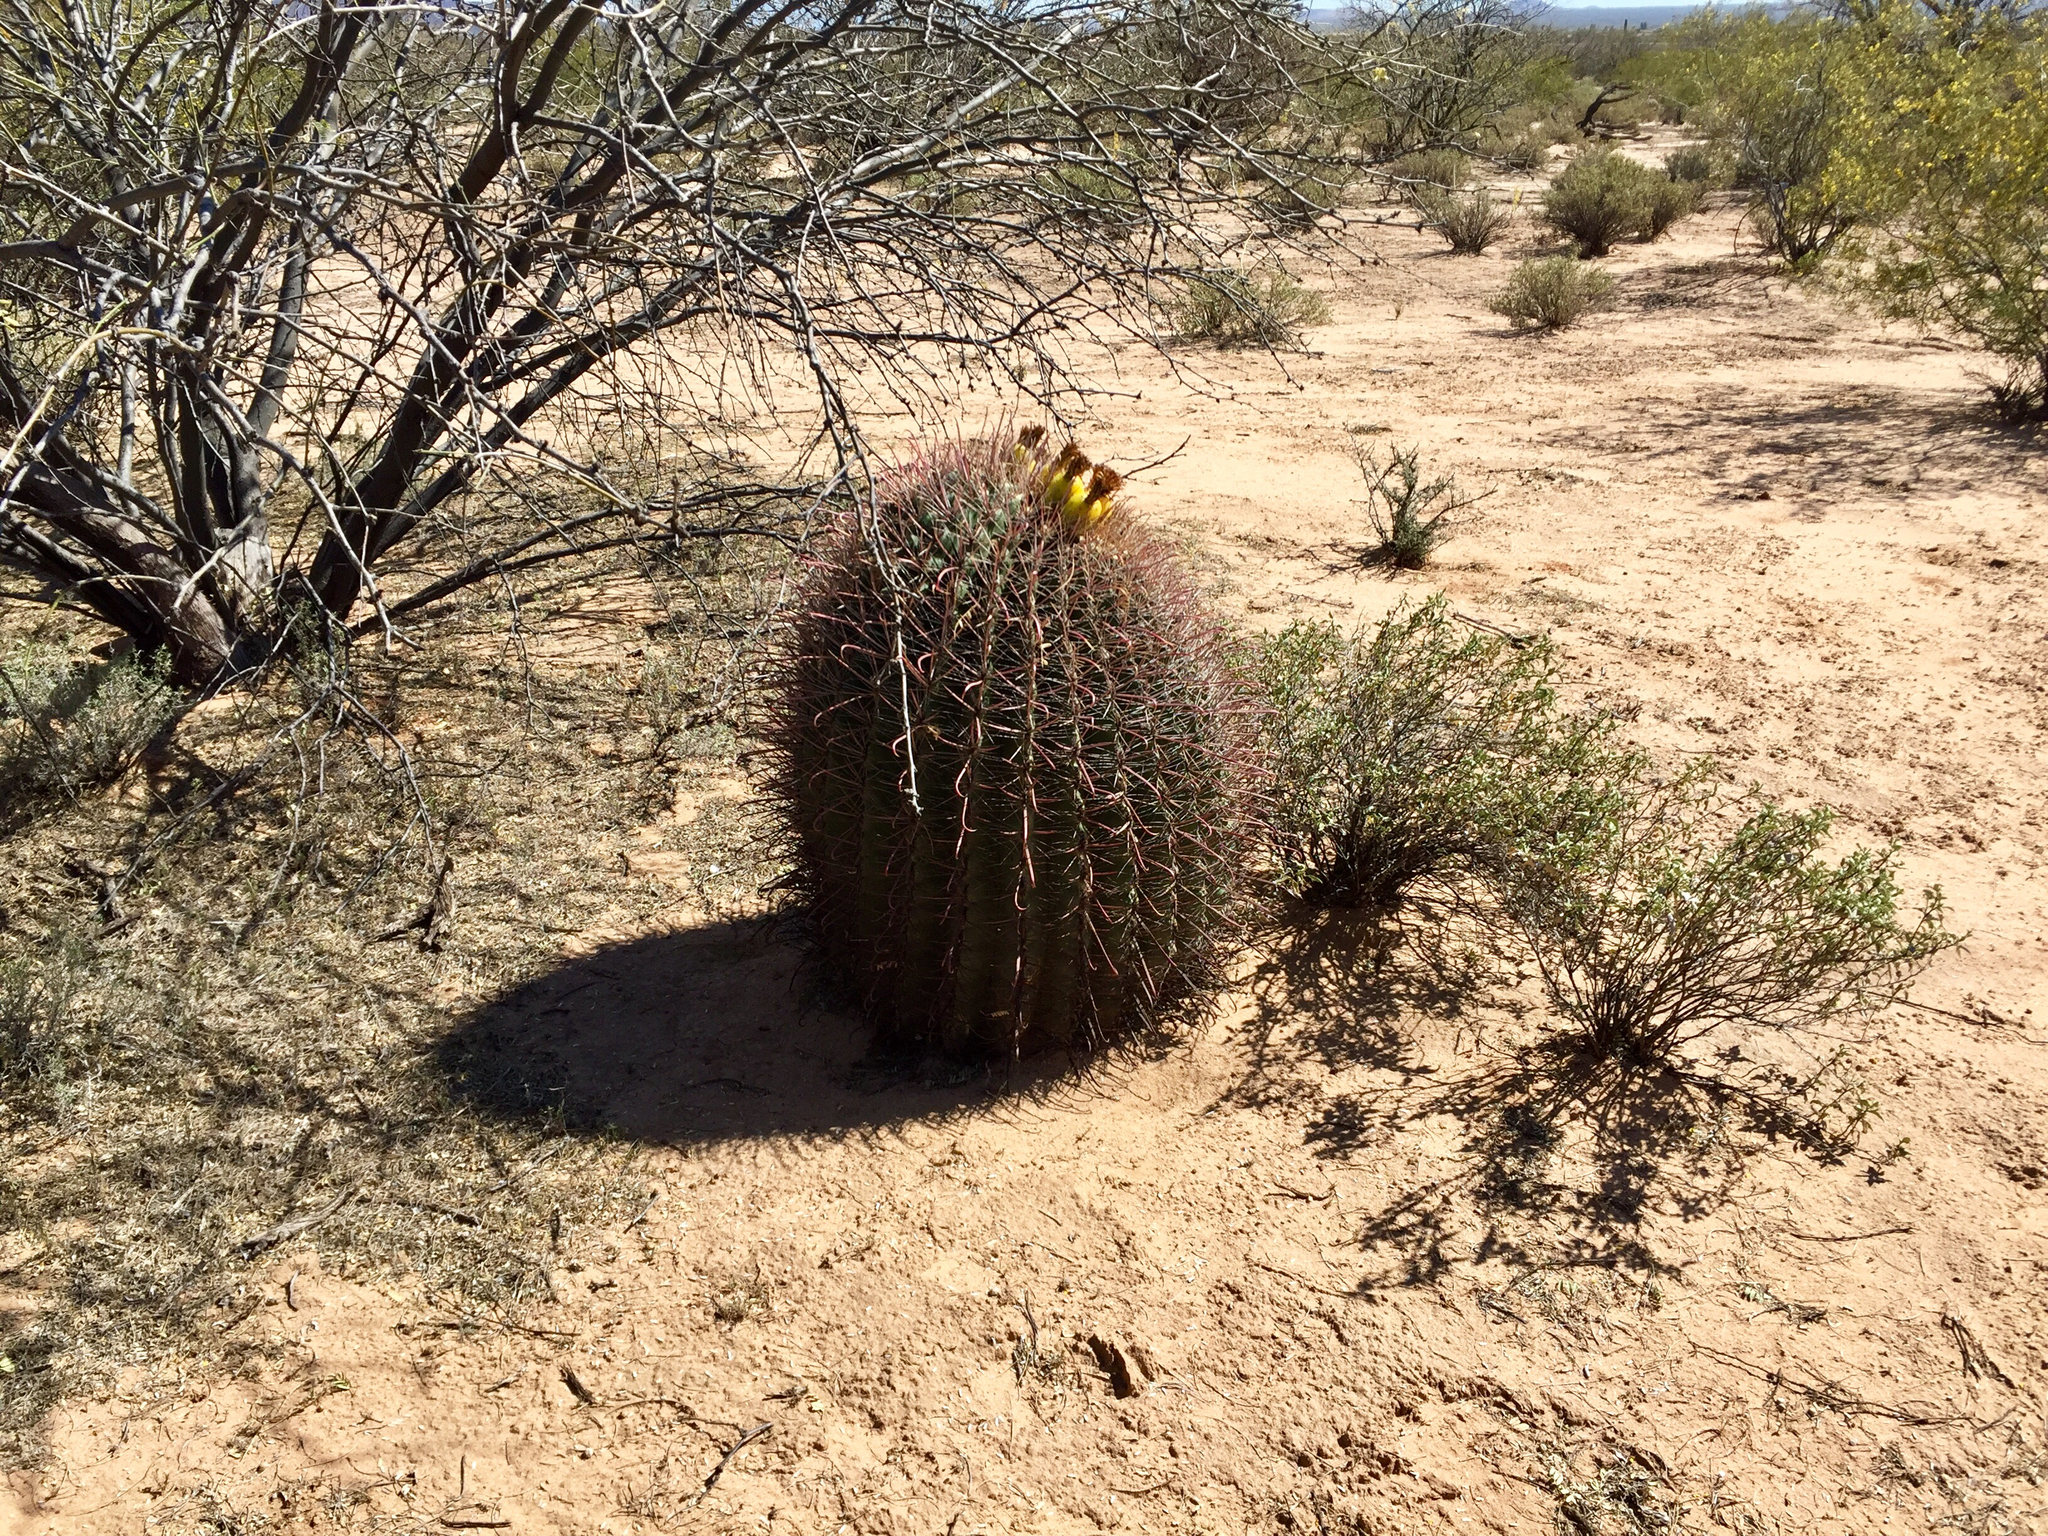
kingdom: Plantae
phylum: Tracheophyta
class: Magnoliopsida
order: Caryophyllales
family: Cactaceae
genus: Ferocactus
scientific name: Ferocactus wislizeni
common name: Candy barrel cactus
